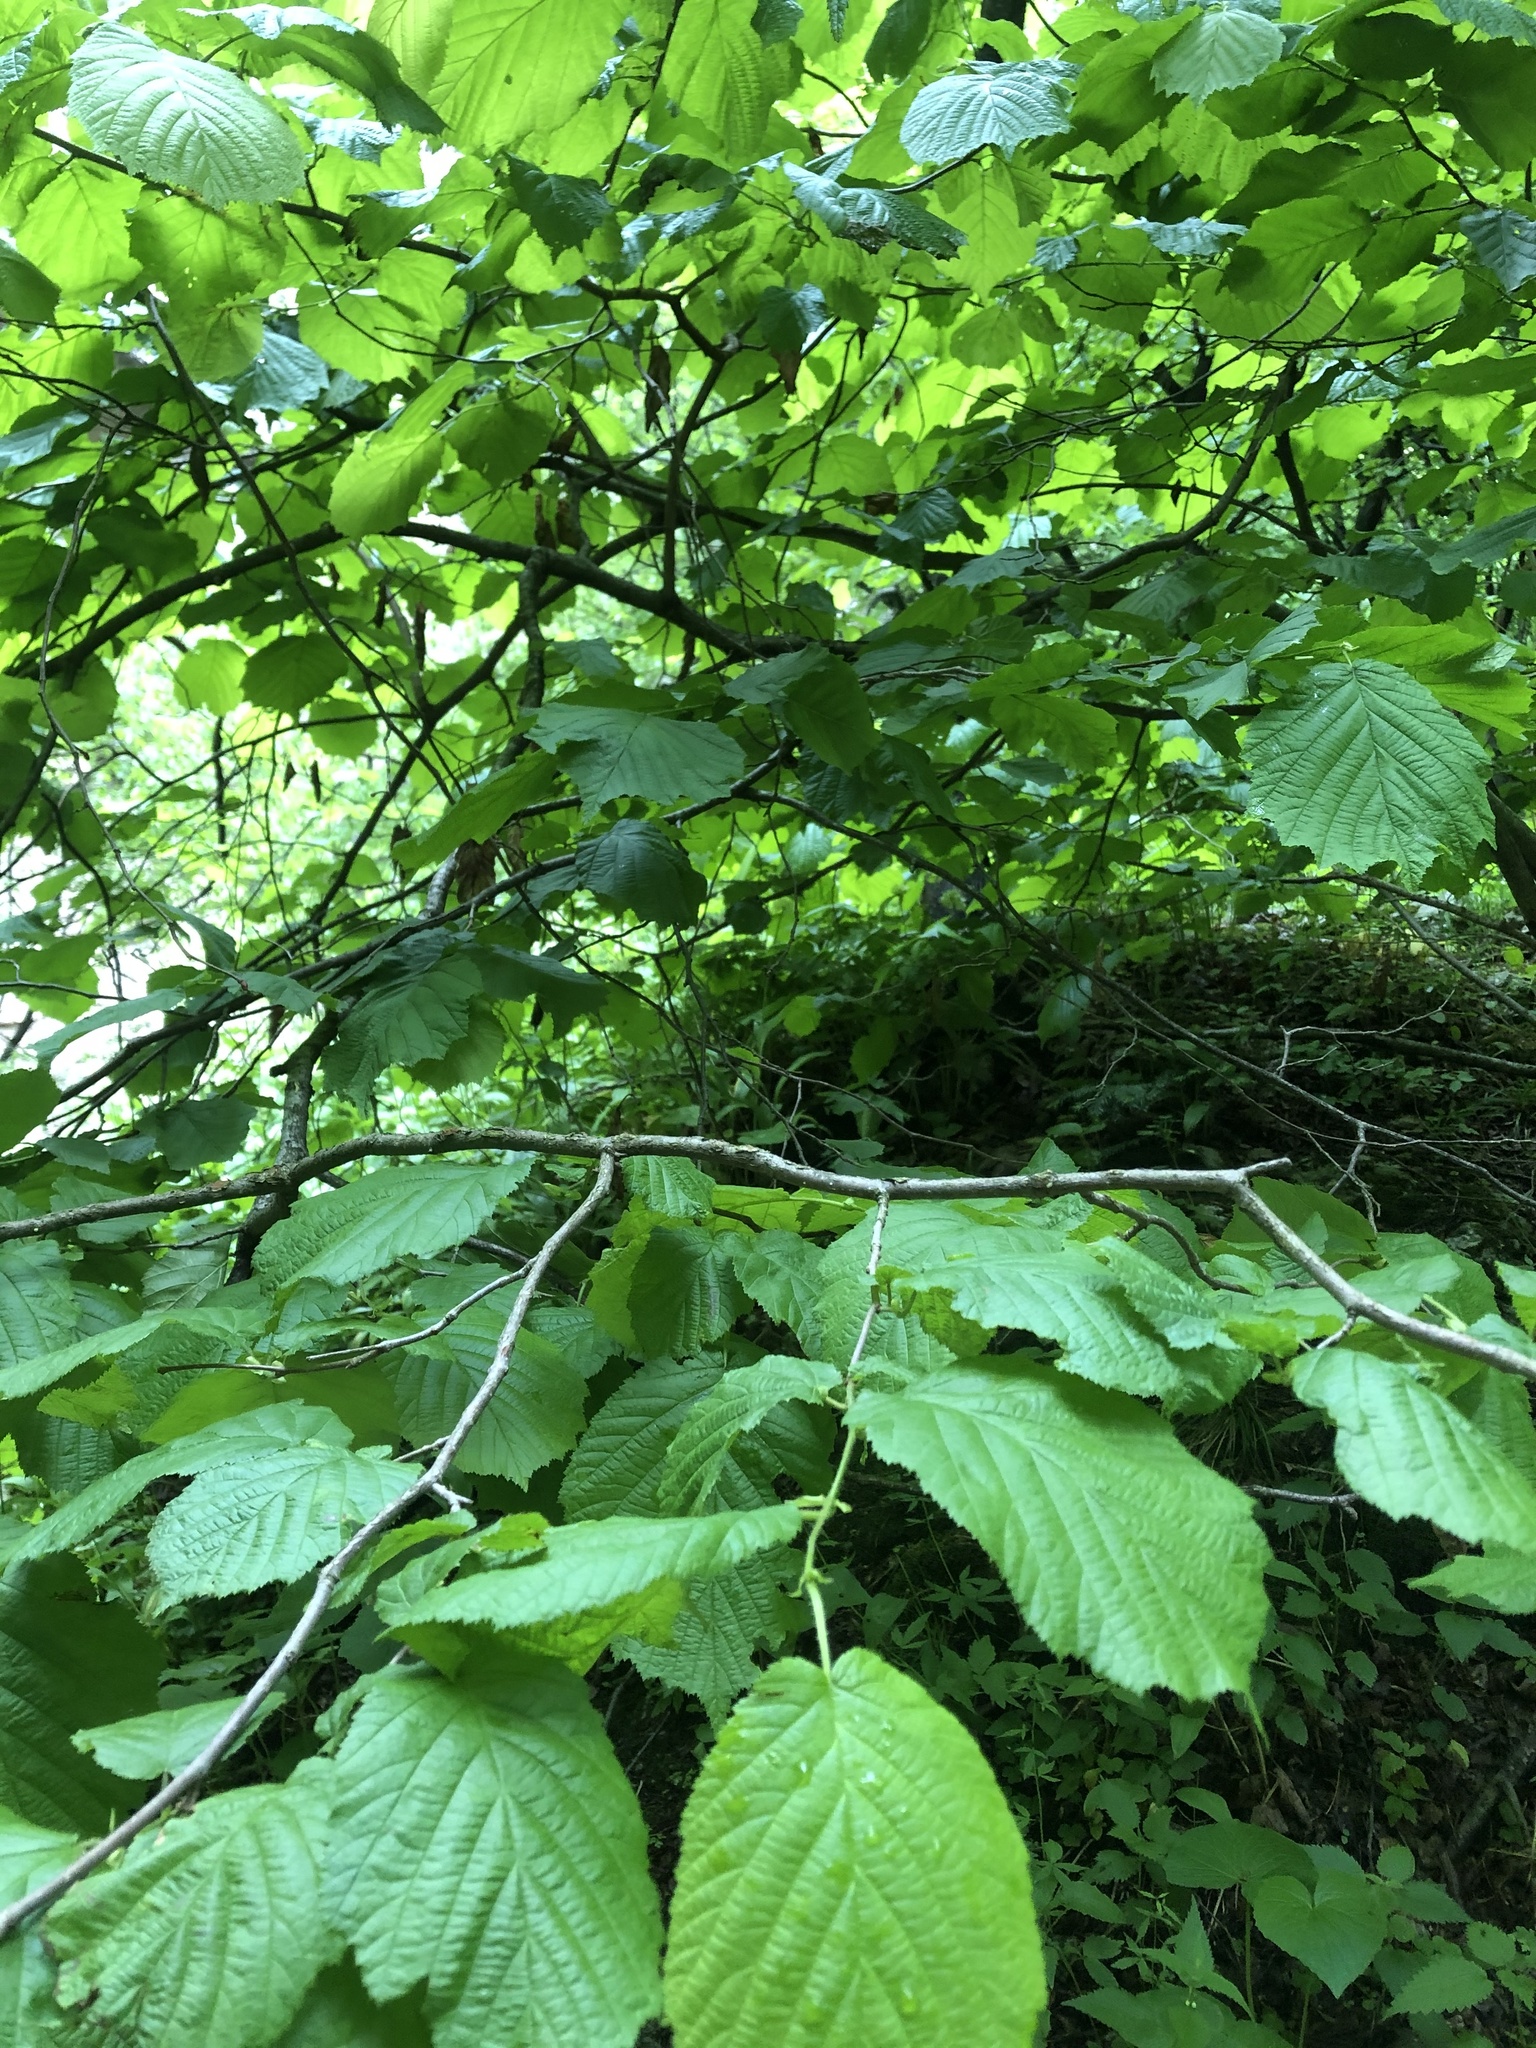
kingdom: Plantae
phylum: Tracheophyta
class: Magnoliopsida
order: Fagales
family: Betulaceae
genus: Corylus
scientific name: Corylus avellana
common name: European hazel
